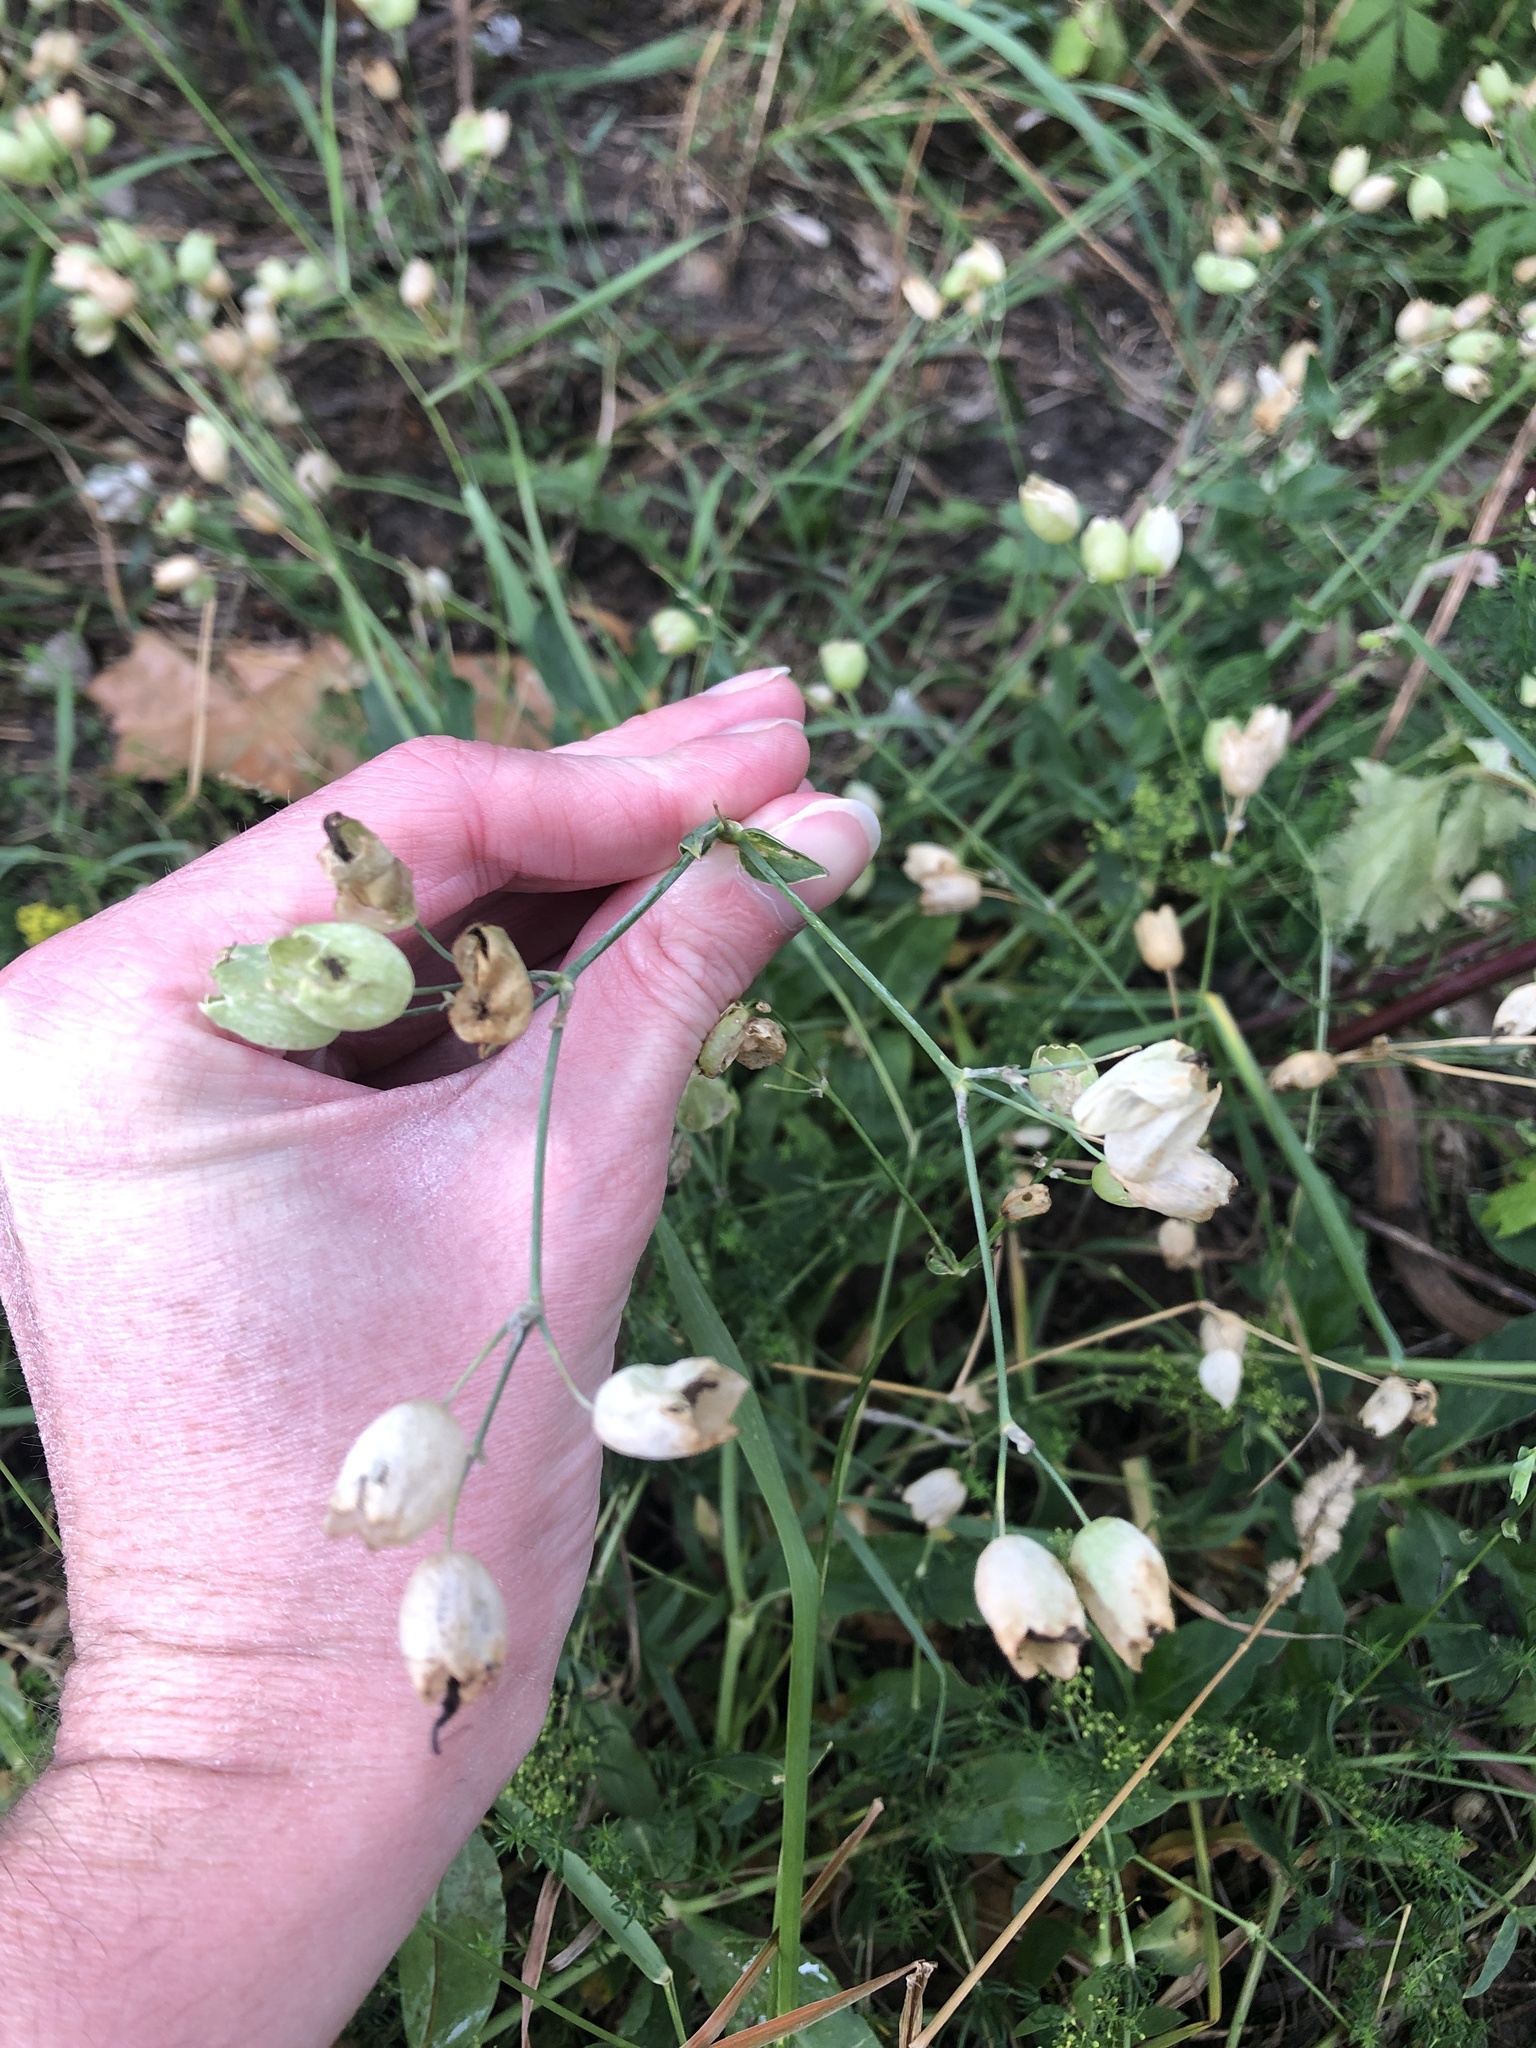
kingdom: Plantae
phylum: Tracheophyta
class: Magnoliopsida
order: Caryophyllales
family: Caryophyllaceae
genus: Silene
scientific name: Silene vulgaris
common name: Bladder campion
